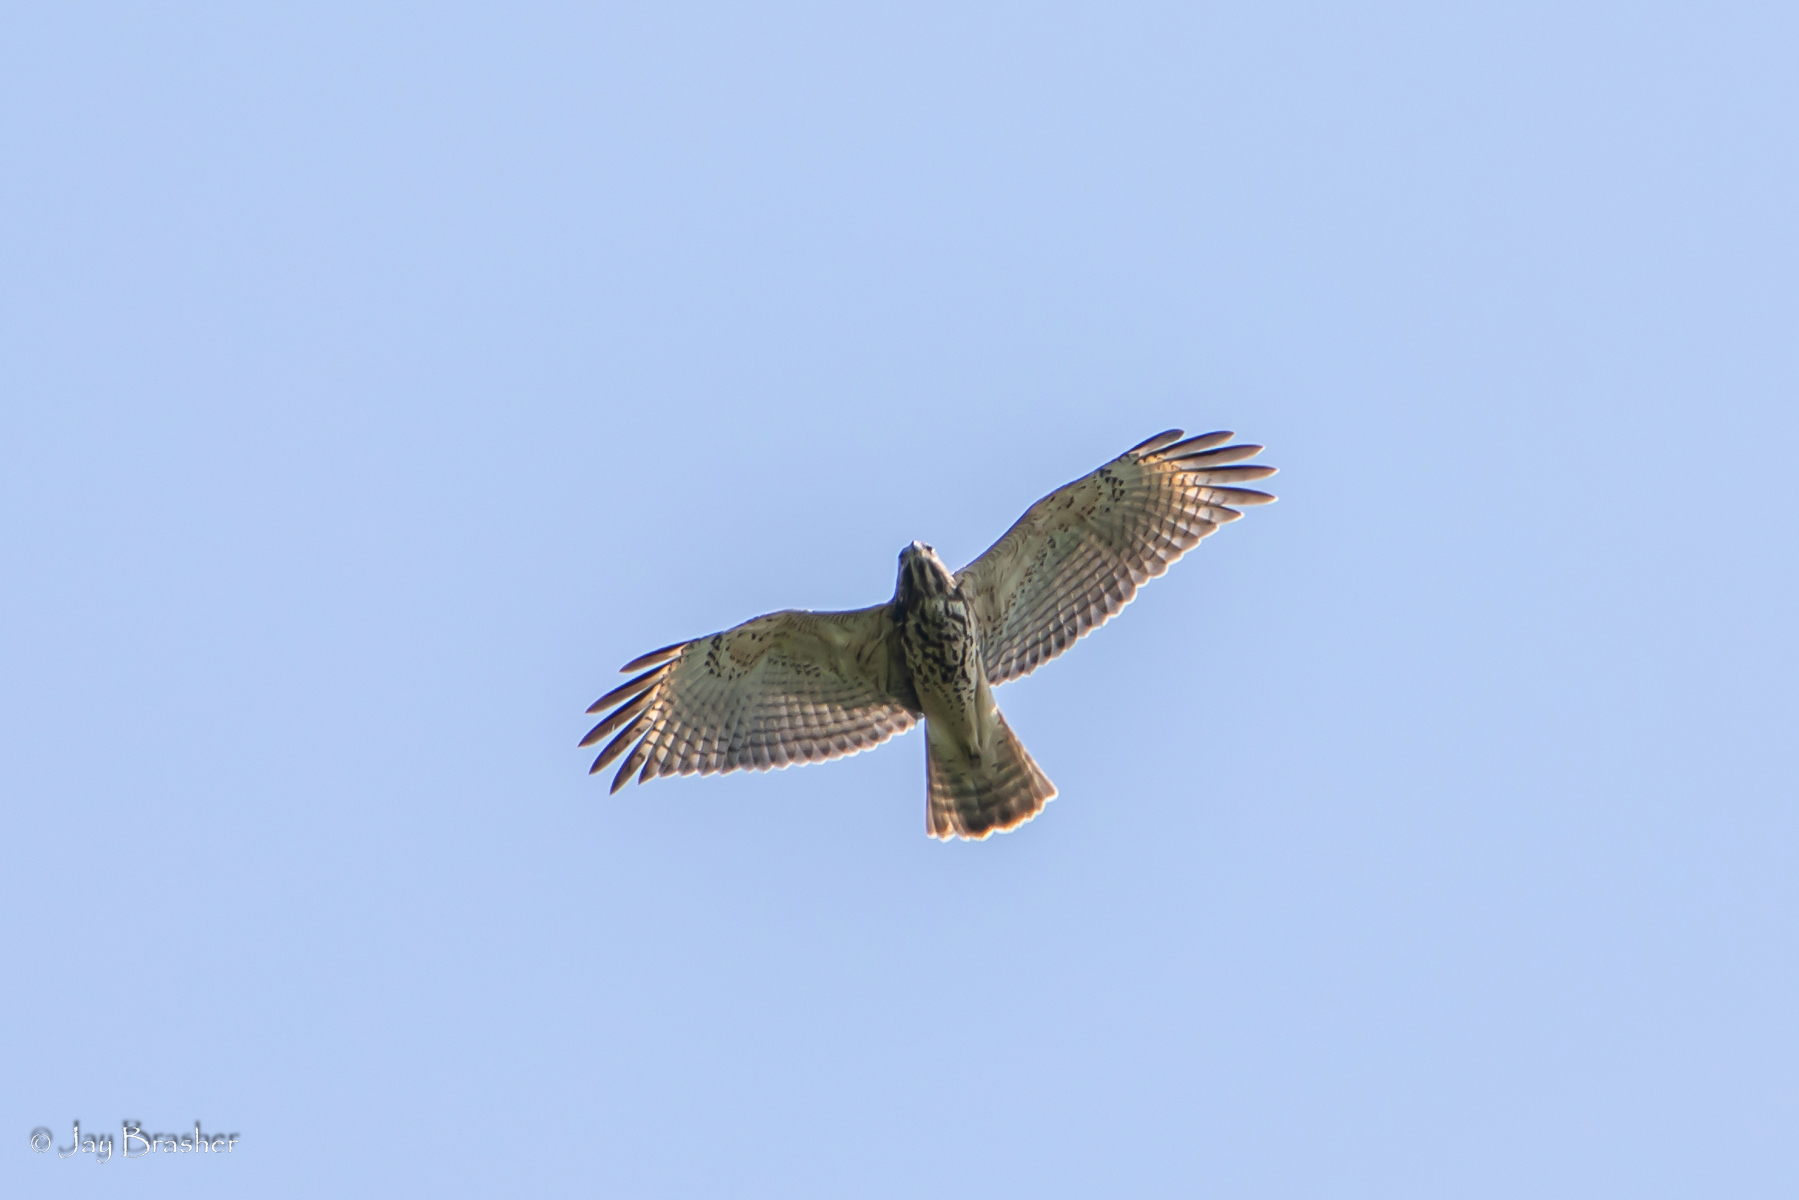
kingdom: Animalia
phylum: Chordata
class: Aves
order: Accipitriformes
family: Accipitridae
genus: Buteo
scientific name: Buteo lineatus
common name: Red-shouldered hawk
